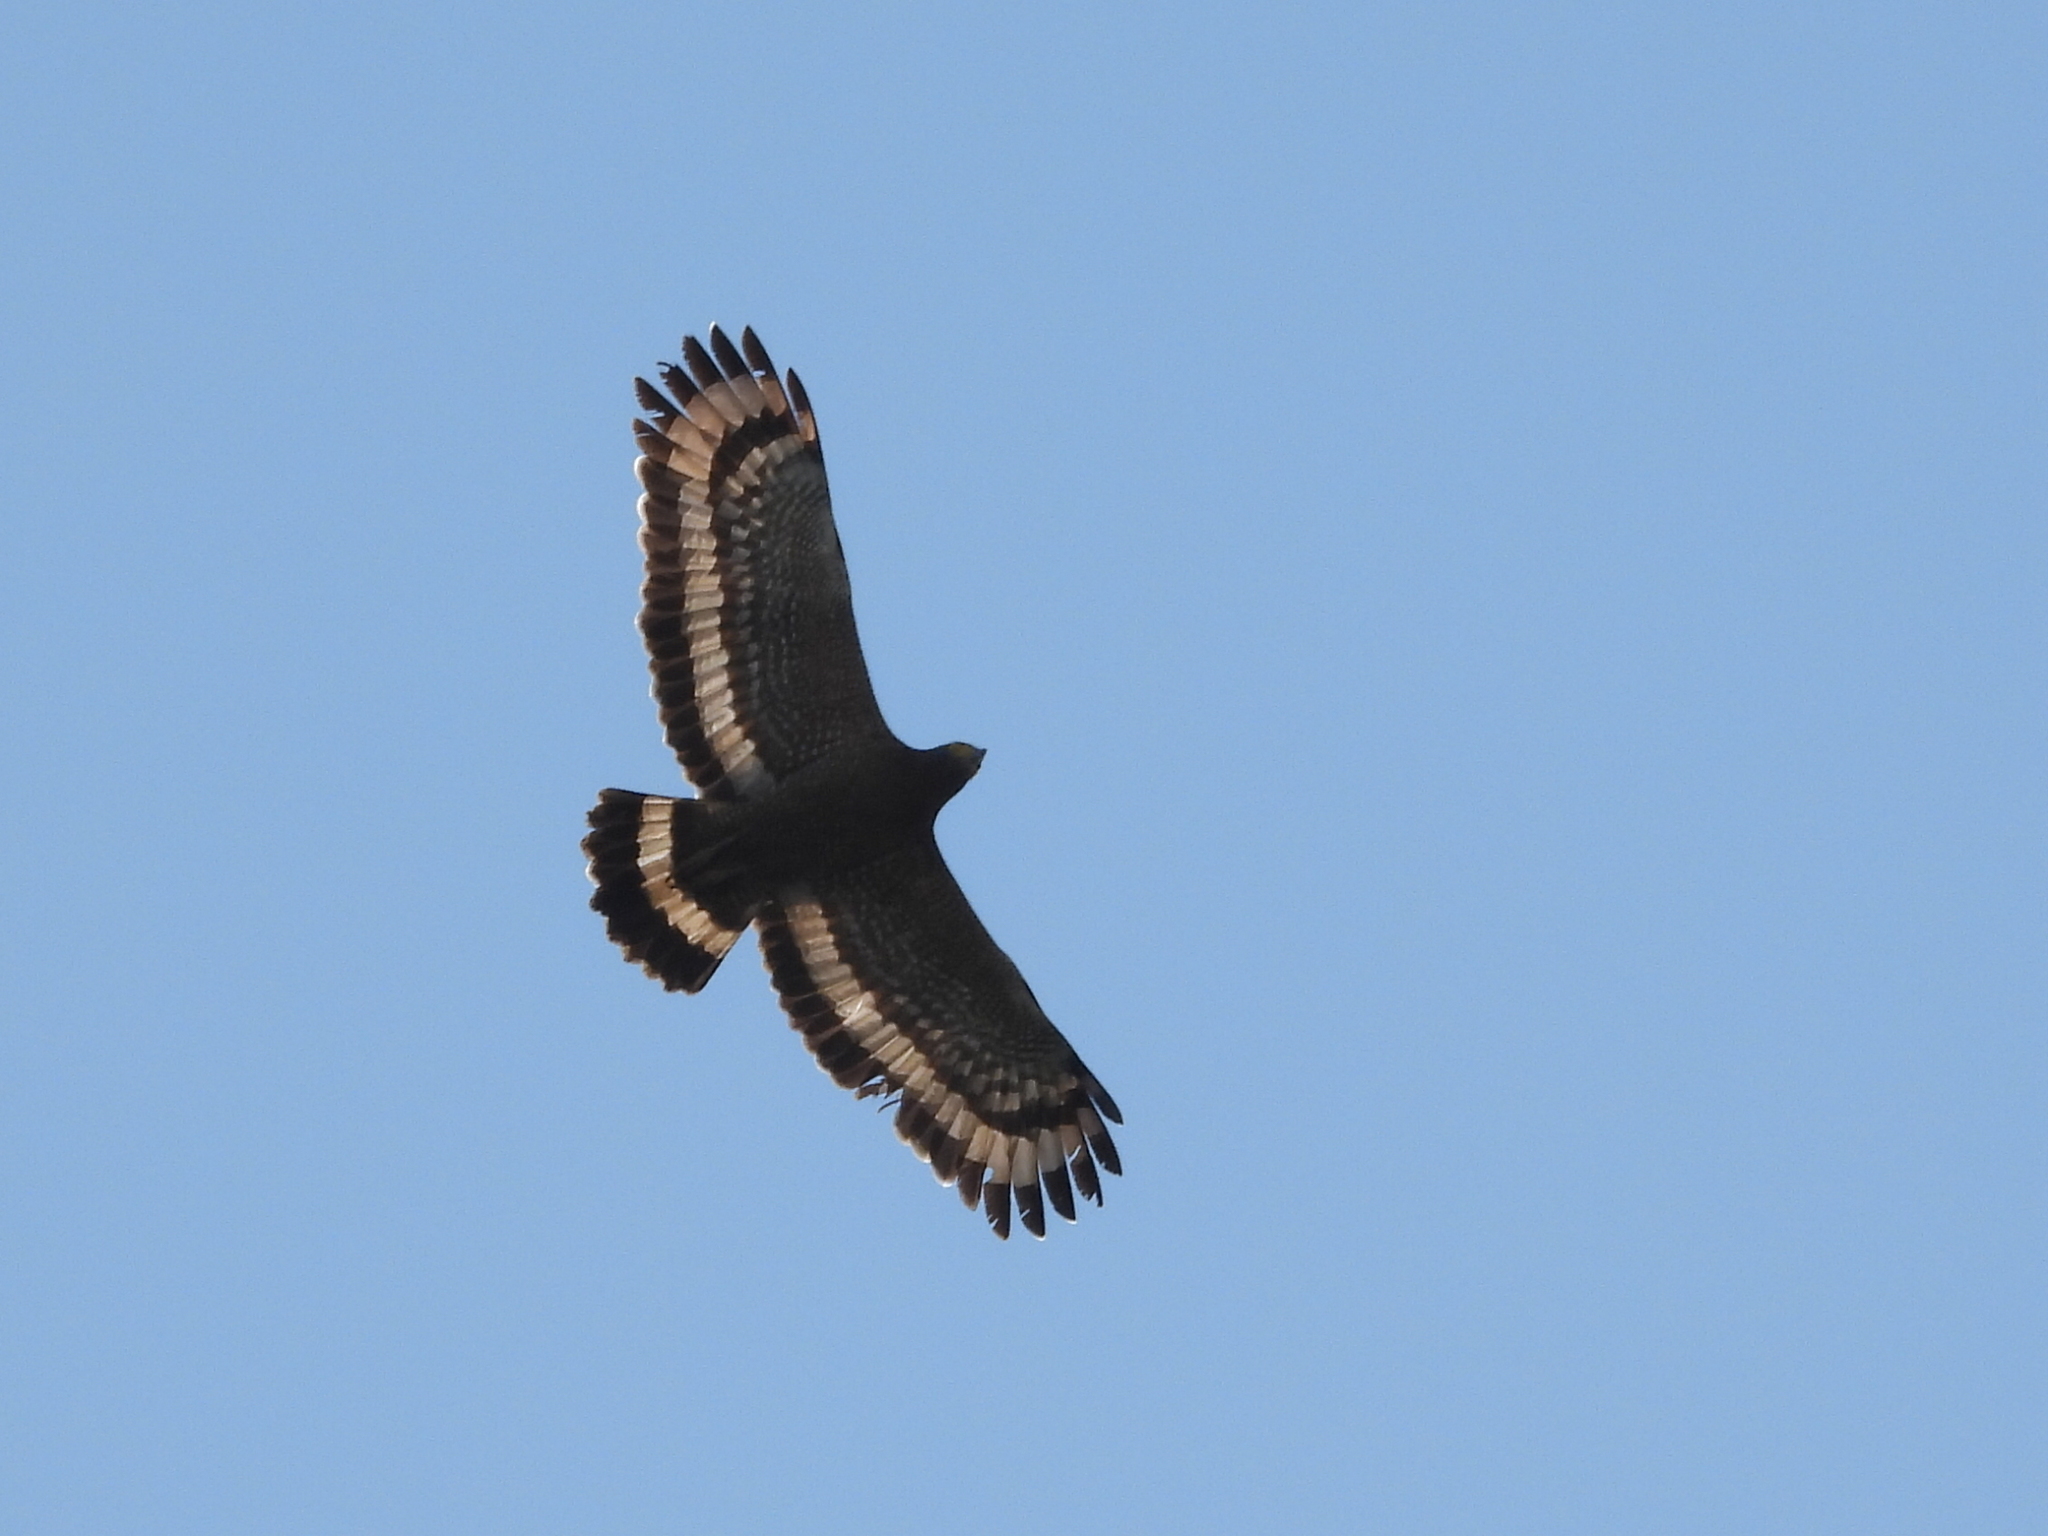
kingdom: Animalia
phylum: Chordata
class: Aves
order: Accipitriformes
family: Accipitridae
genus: Spilornis
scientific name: Spilornis cheela
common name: Crested serpent eagle
